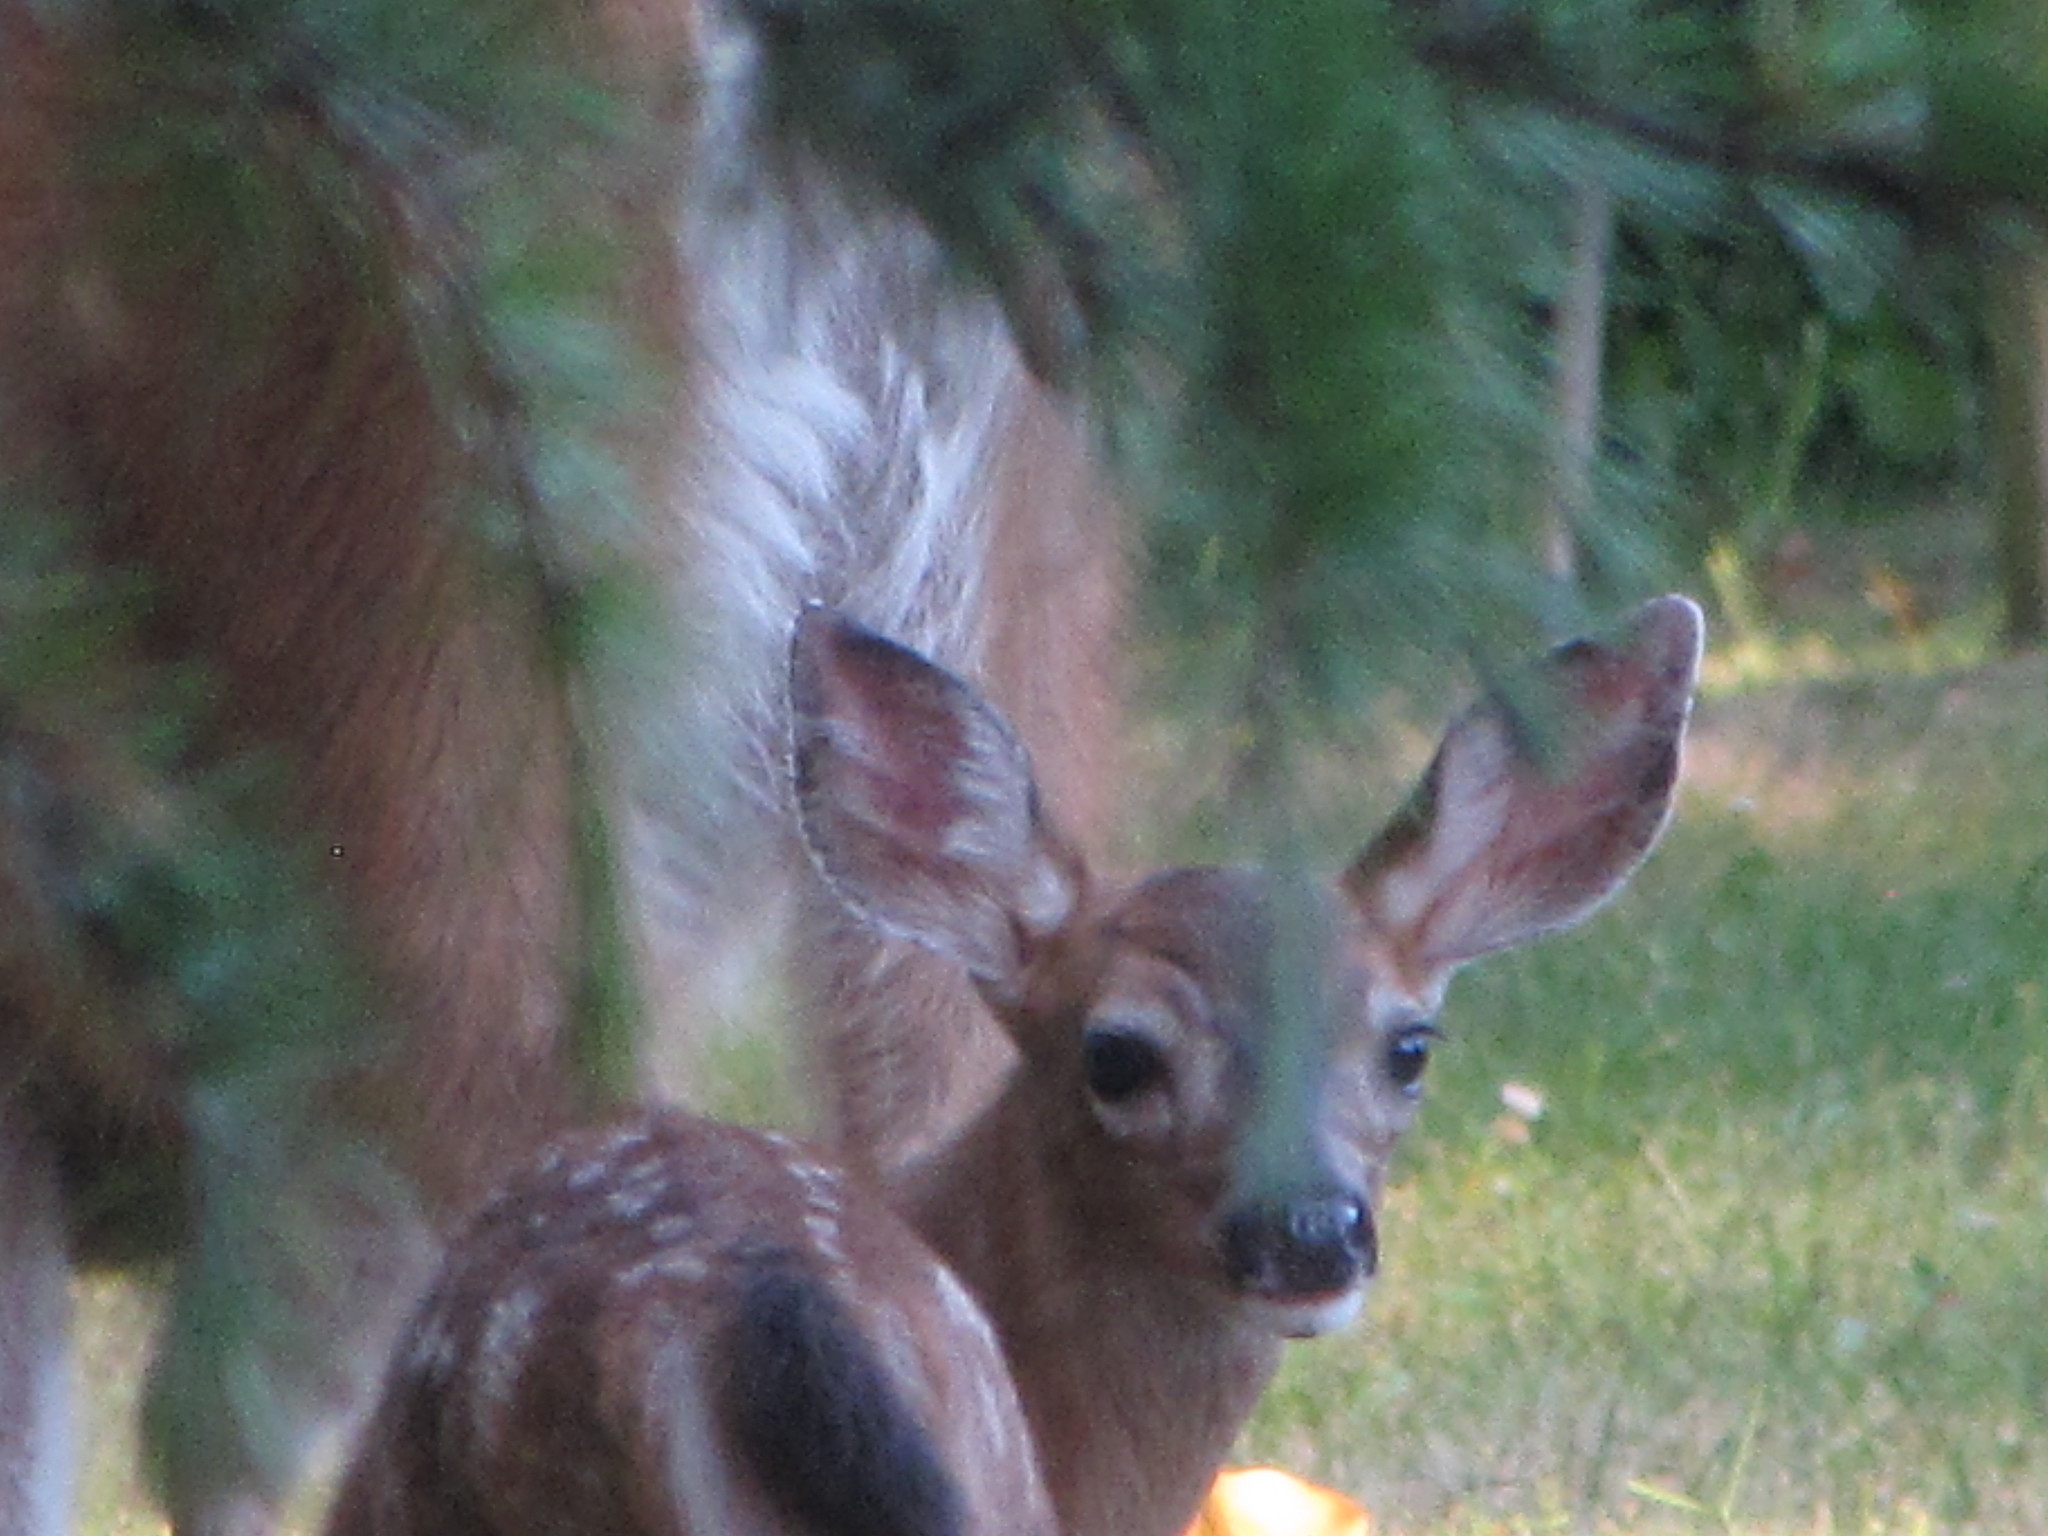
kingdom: Animalia
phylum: Chordata
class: Mammalia
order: Artiodactyla
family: Cervidae
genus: Odocoileus
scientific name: Odocoileus hemionus
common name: Mule deer
